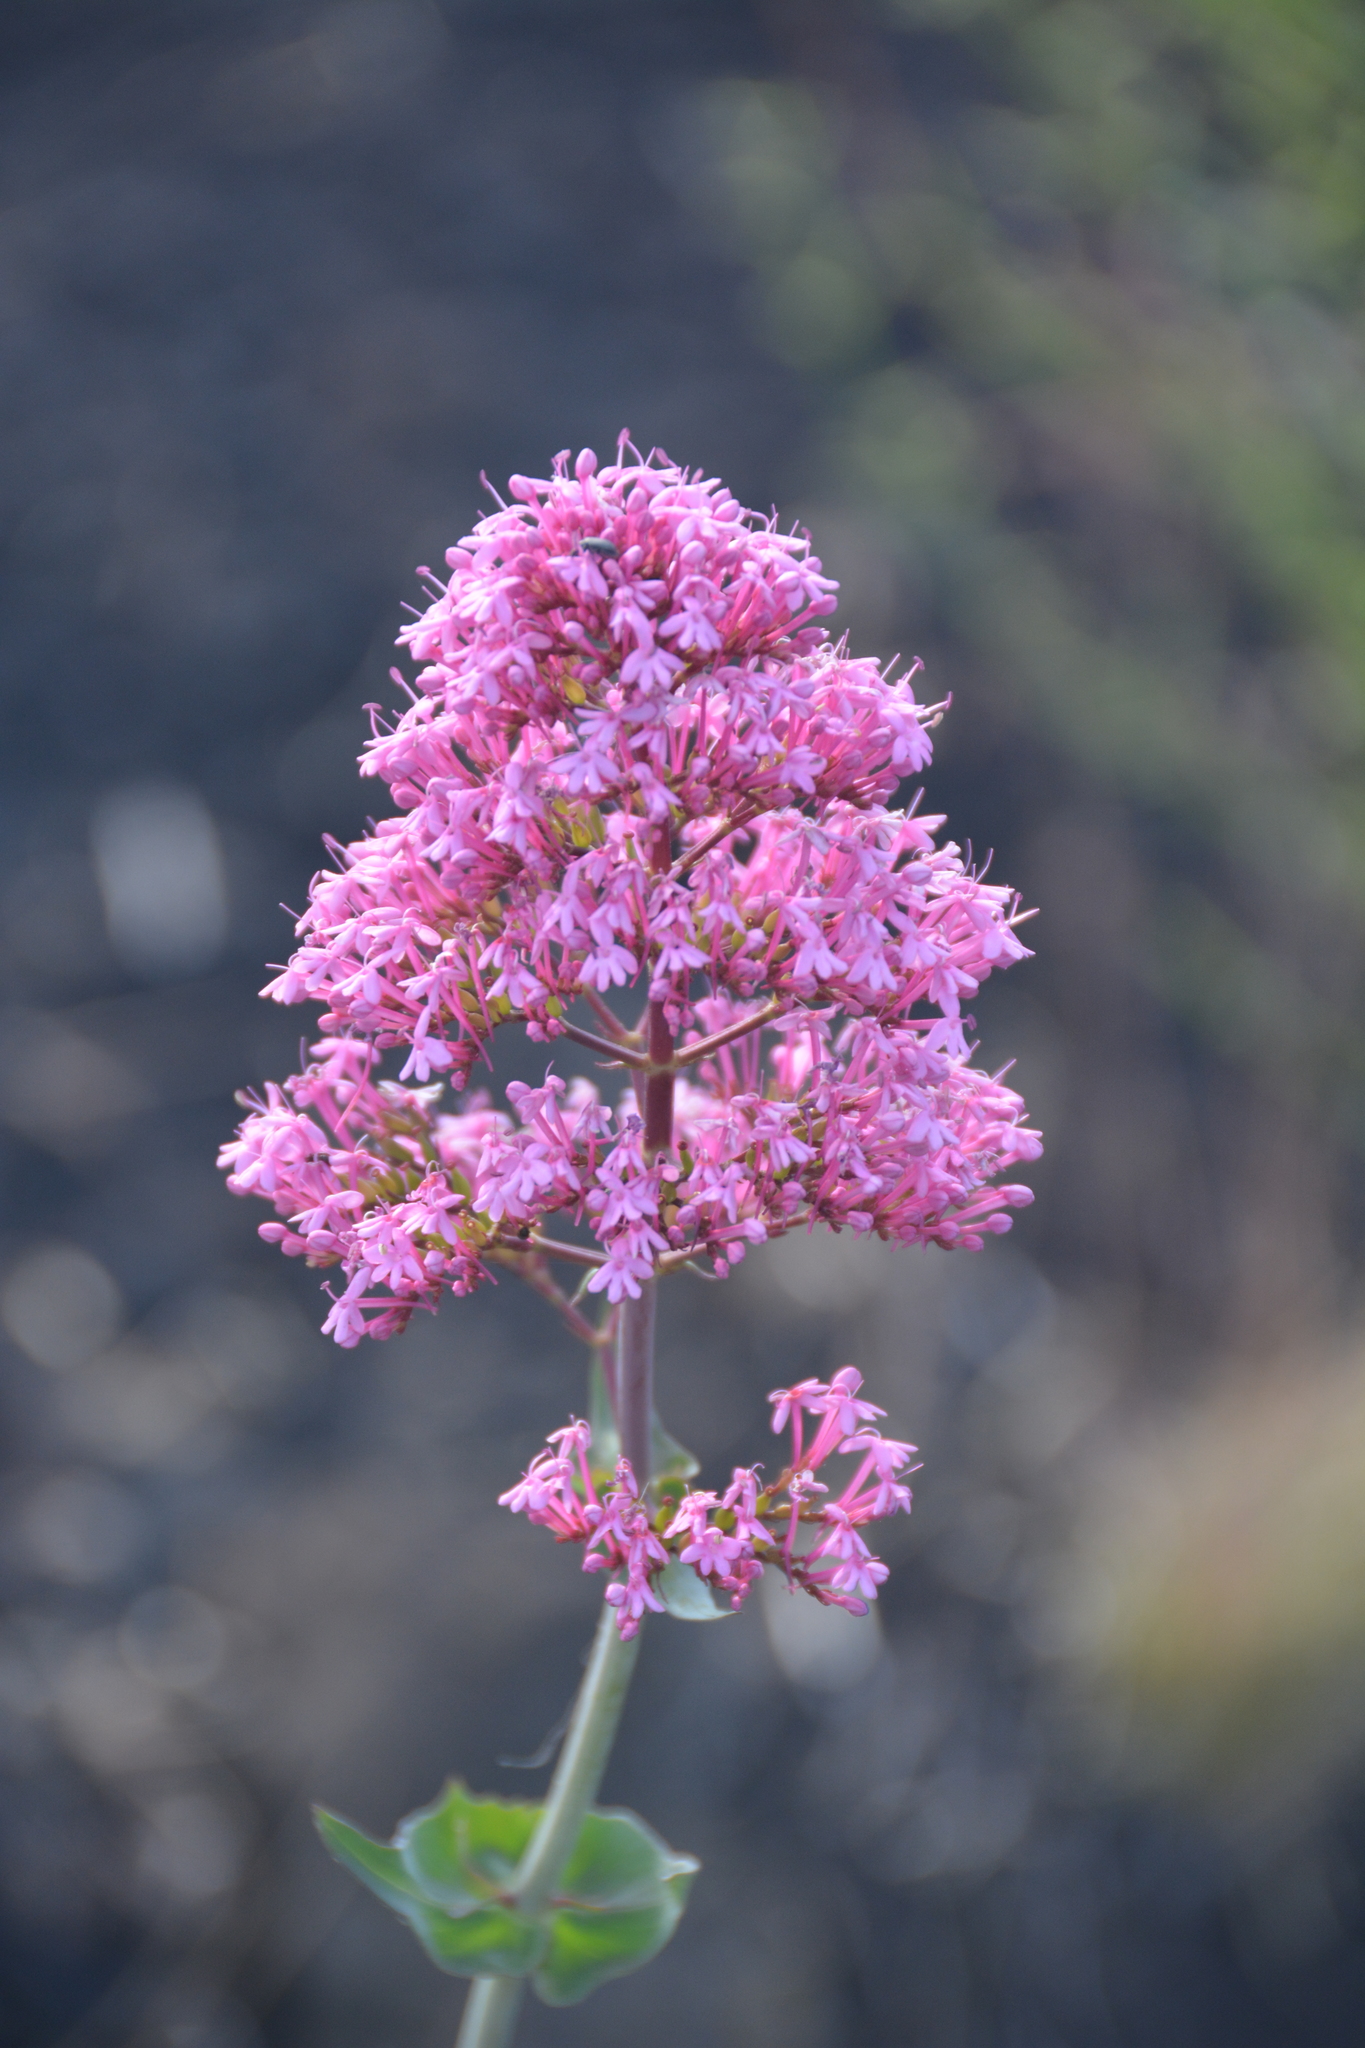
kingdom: Plantae
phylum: Tracheophyta
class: Magnoliopsida
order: Dipsacales
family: Caprifoliaceae
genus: Centranthus
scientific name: Centranthus ruber
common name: Red valerian
